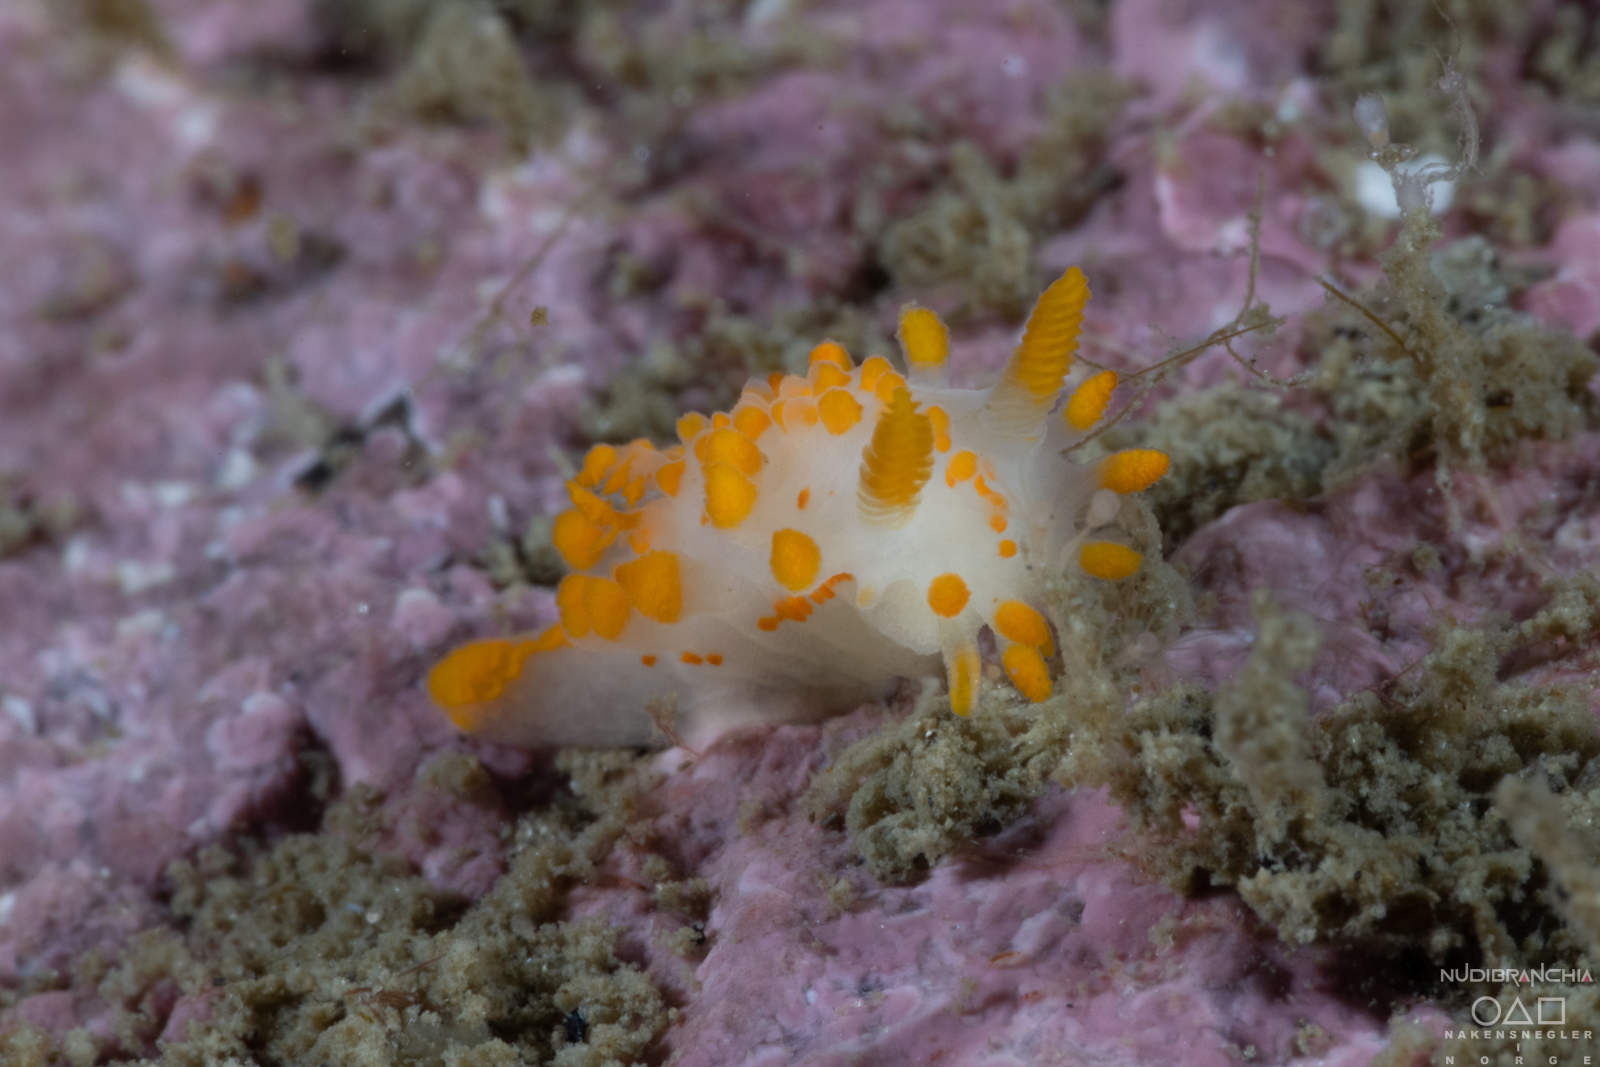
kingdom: Animalia
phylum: Mollusca
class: Gastropoda
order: Nudibranchia
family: Polyceridae
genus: Limacia
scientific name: Limacia clavigera
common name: Orange-clubbed sea slug
